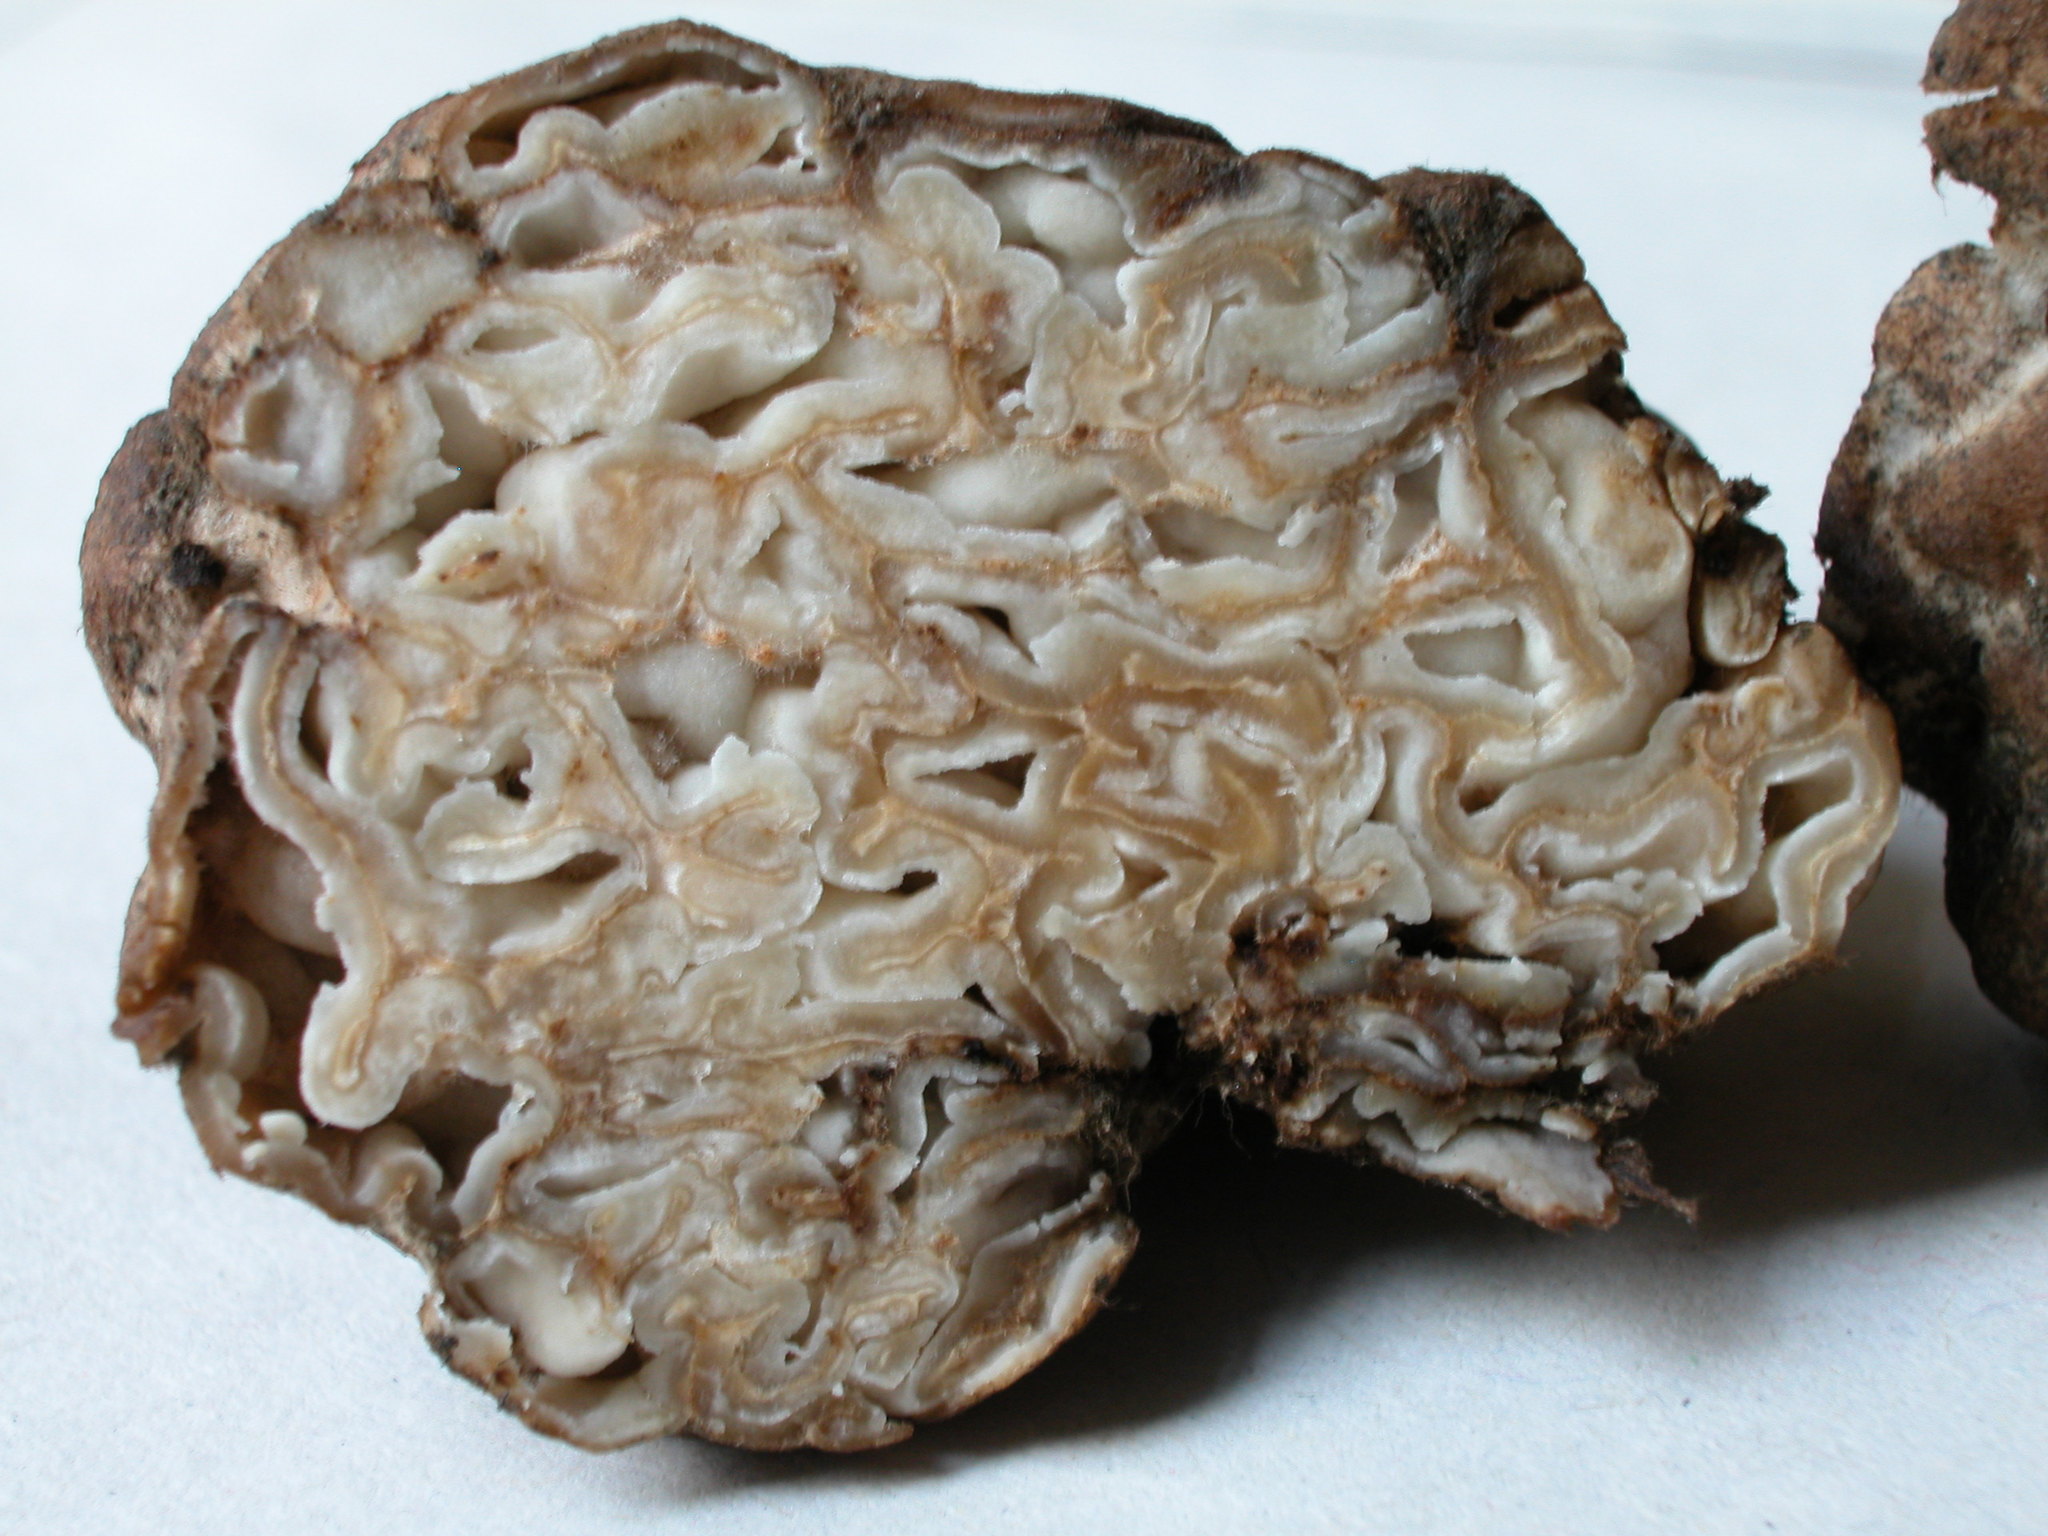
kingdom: Fungi
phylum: Ascomycota
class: Pezizomycetes
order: Pezizales
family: Pyronemataceae
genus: Geopora
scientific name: Geopora cooperi
